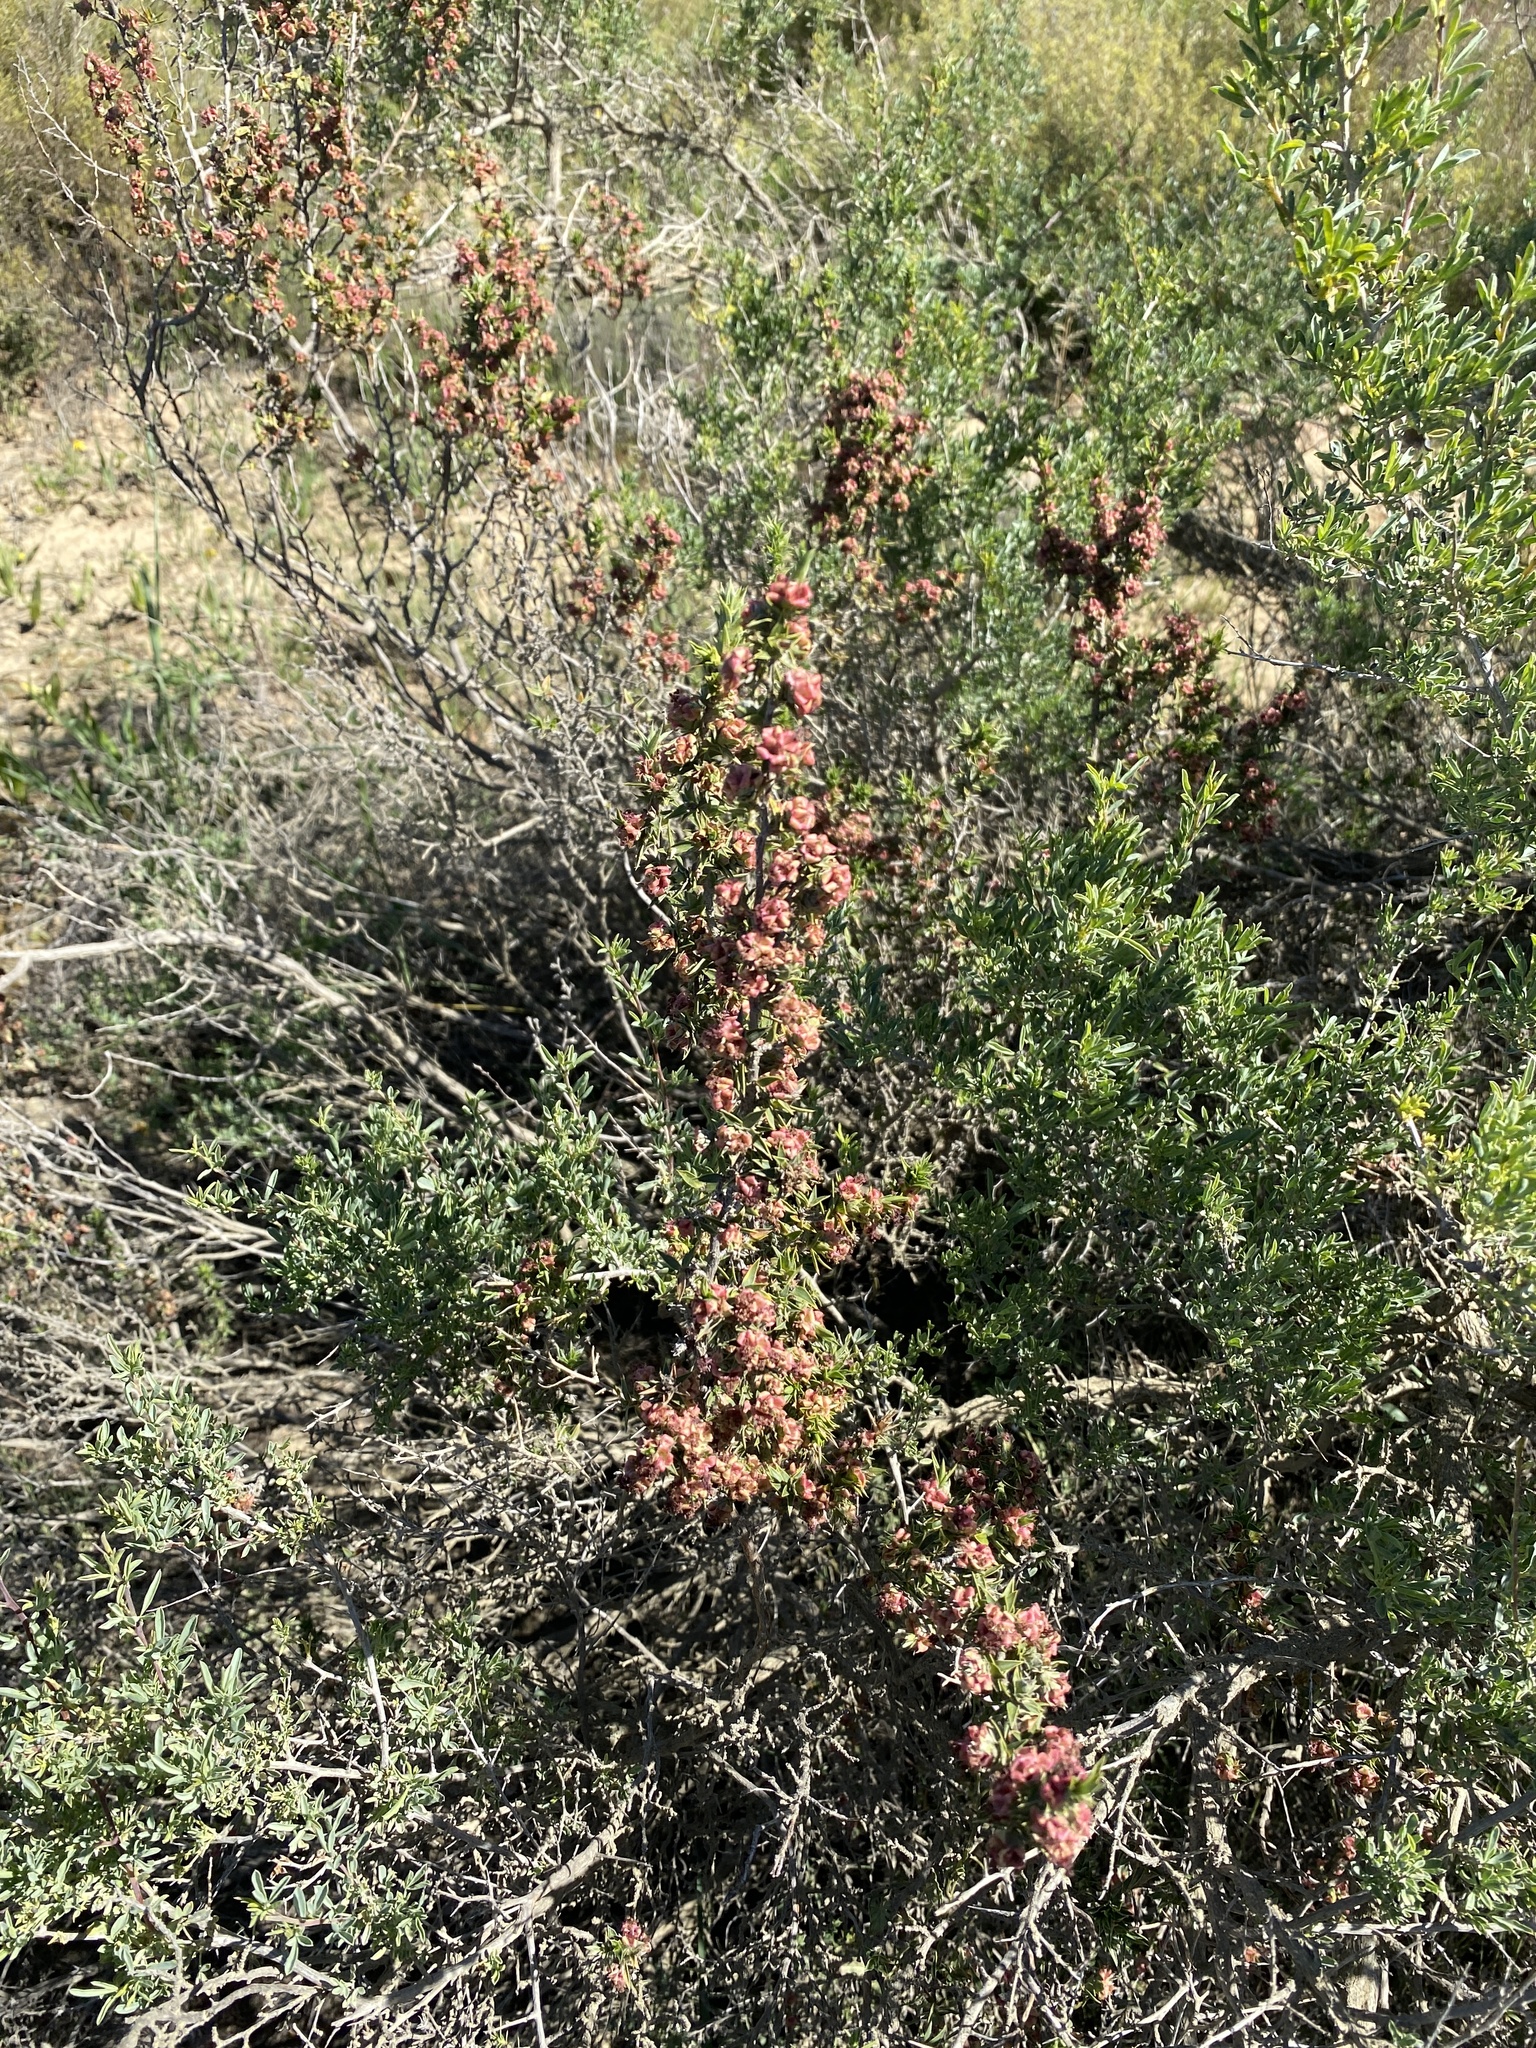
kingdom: Plantae
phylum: Tracheophyta
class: Magnoliopsida
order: Rosales
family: Rosaceae
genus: Cliffortia
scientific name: Cliffortia ruscifolia
